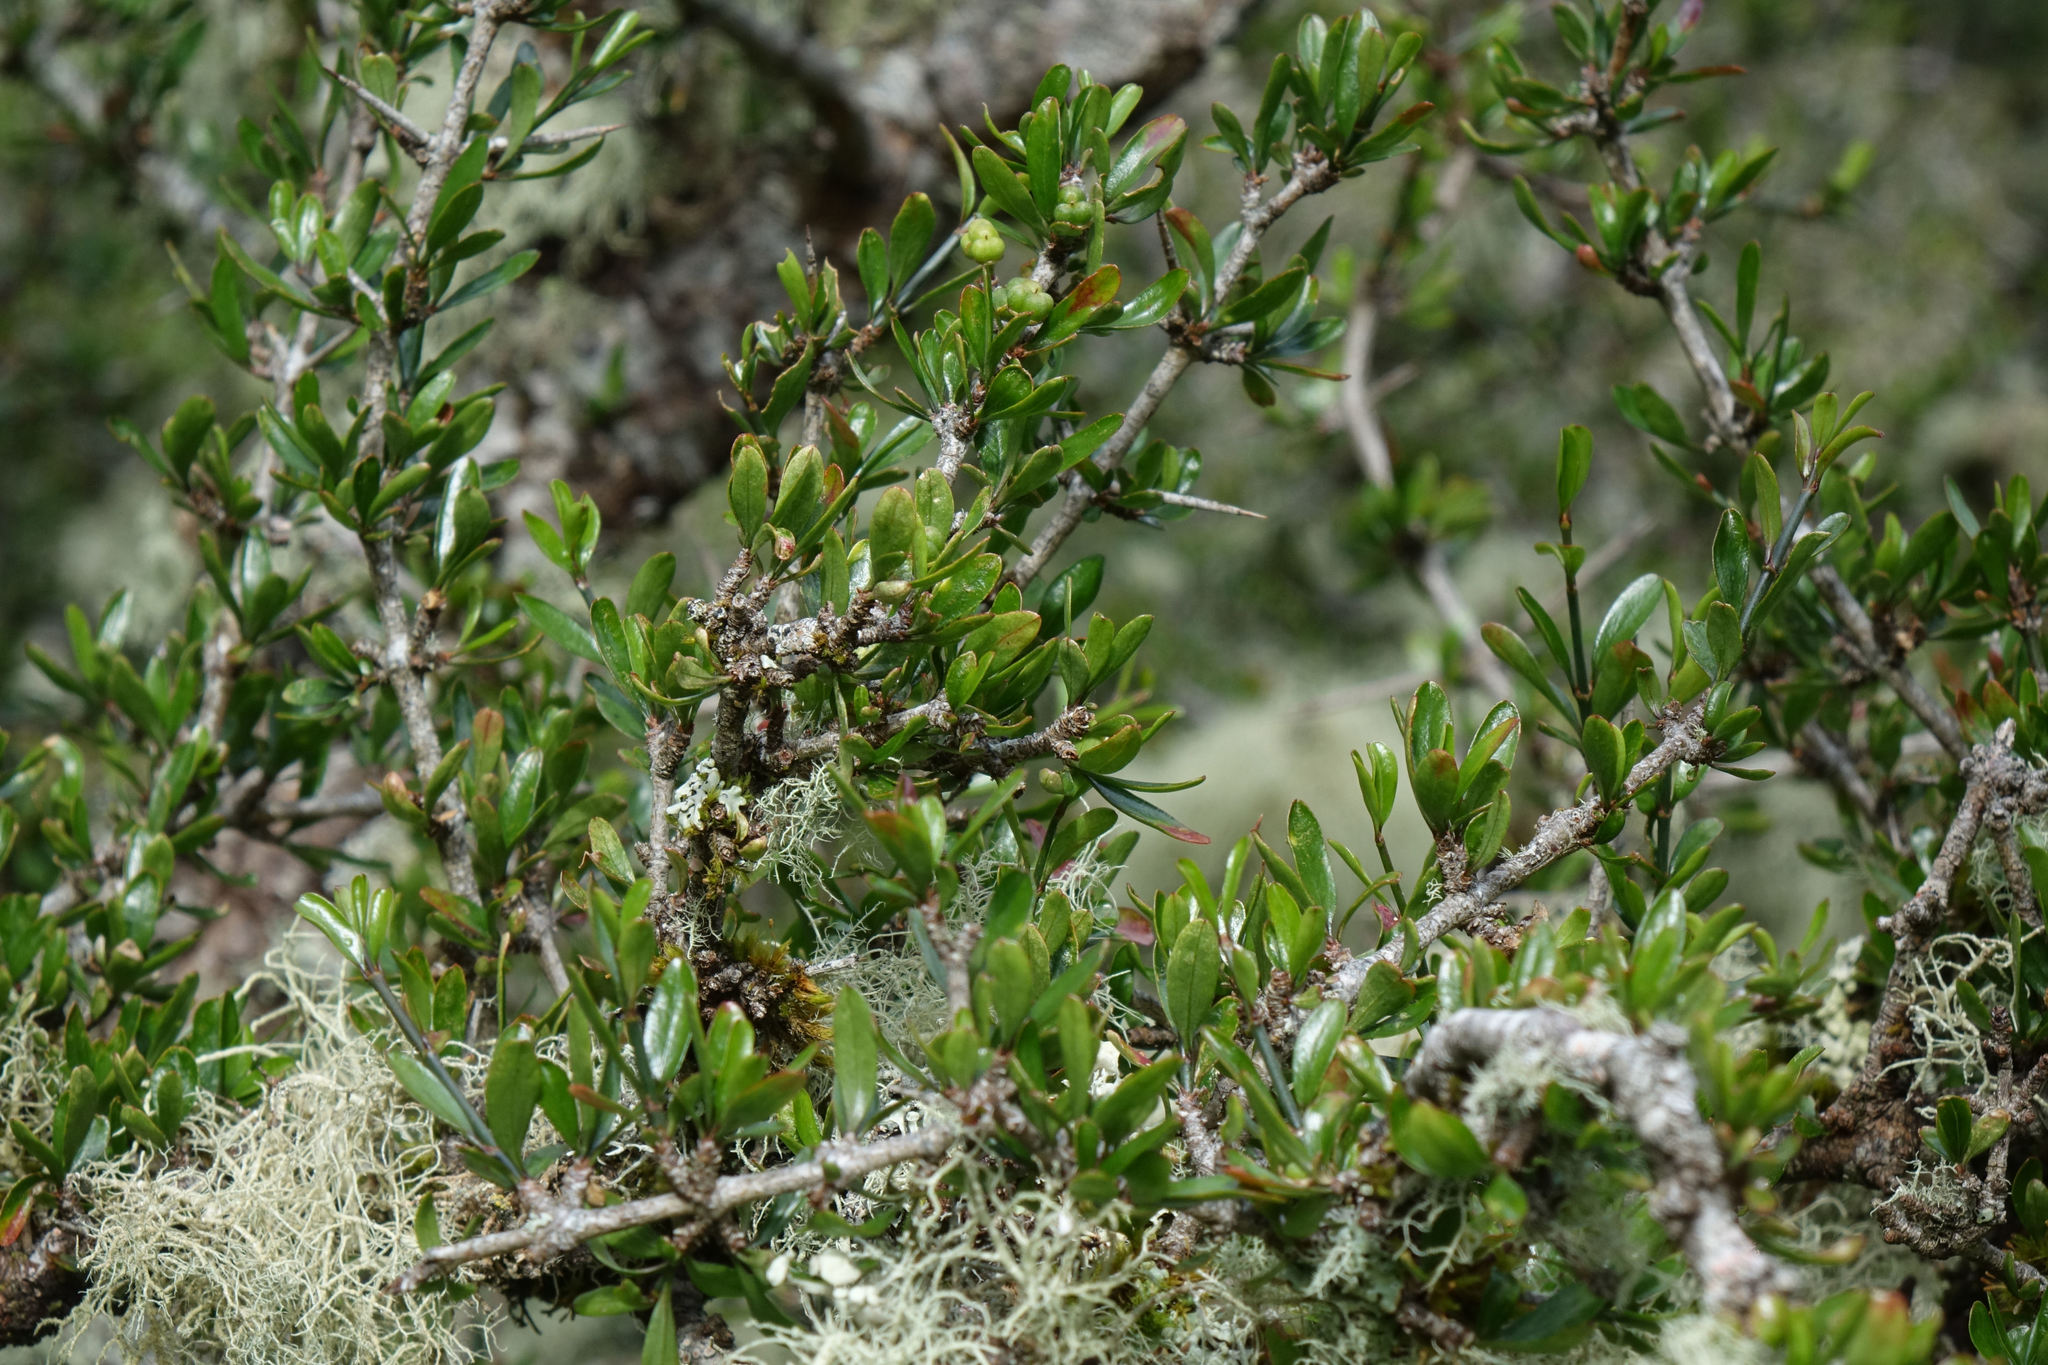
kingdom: Plantae
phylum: Tracheophyta
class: Magnoliopsida
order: Rosales
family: Rhamnaceae
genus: Discaria
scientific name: Discaria toumatou
